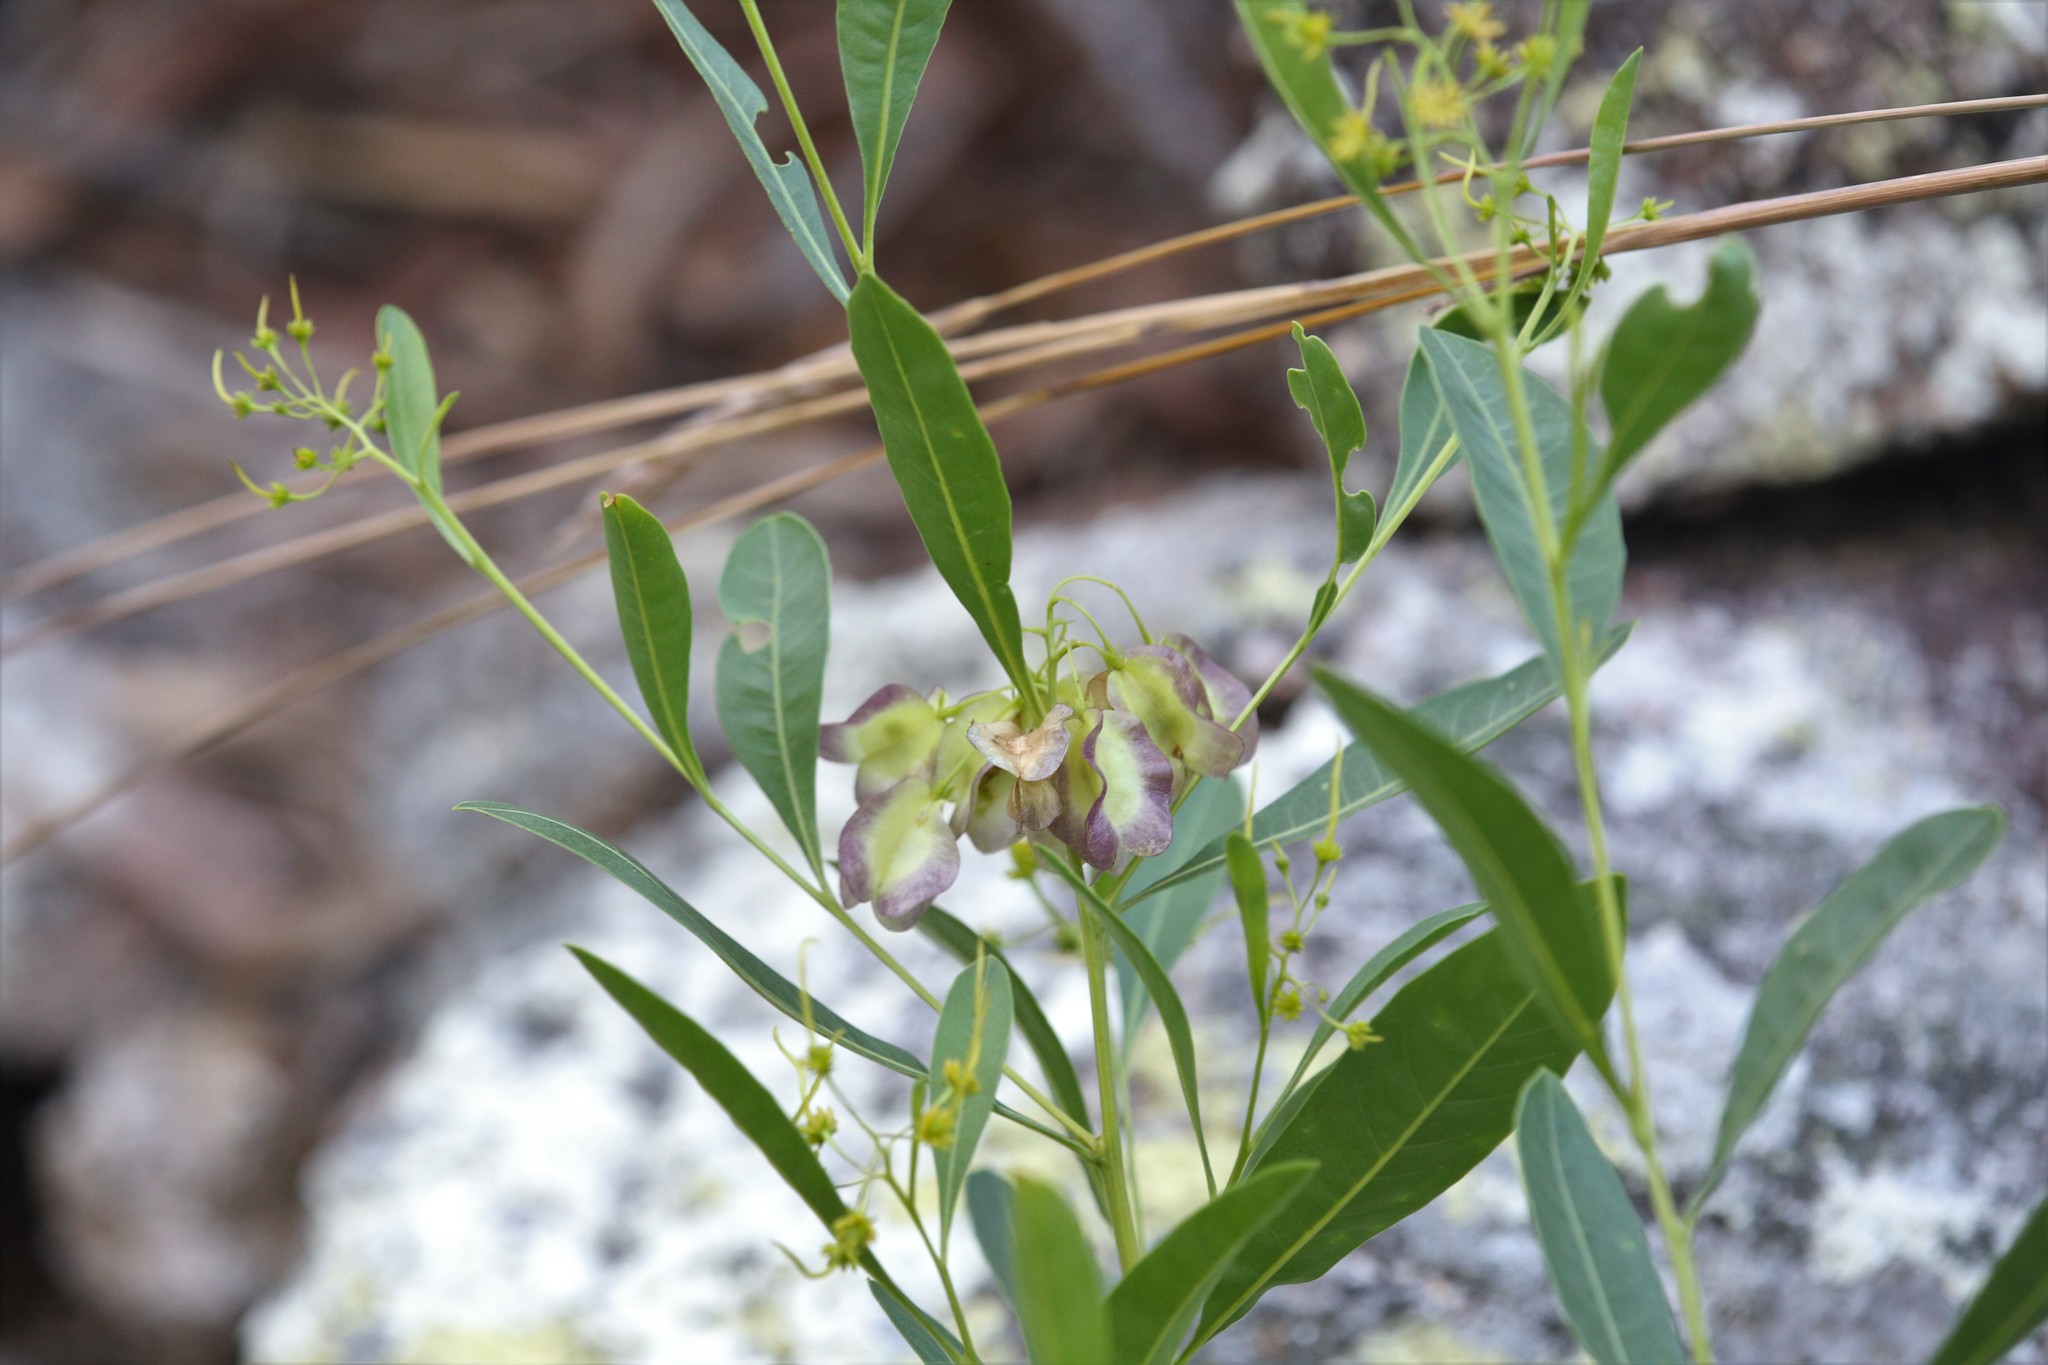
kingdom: Plantae
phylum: Tracheophyta
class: Magnoliopsida
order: Sapindales
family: Sapindaceae
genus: Dodonaea
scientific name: Dodonaea lanceolata
